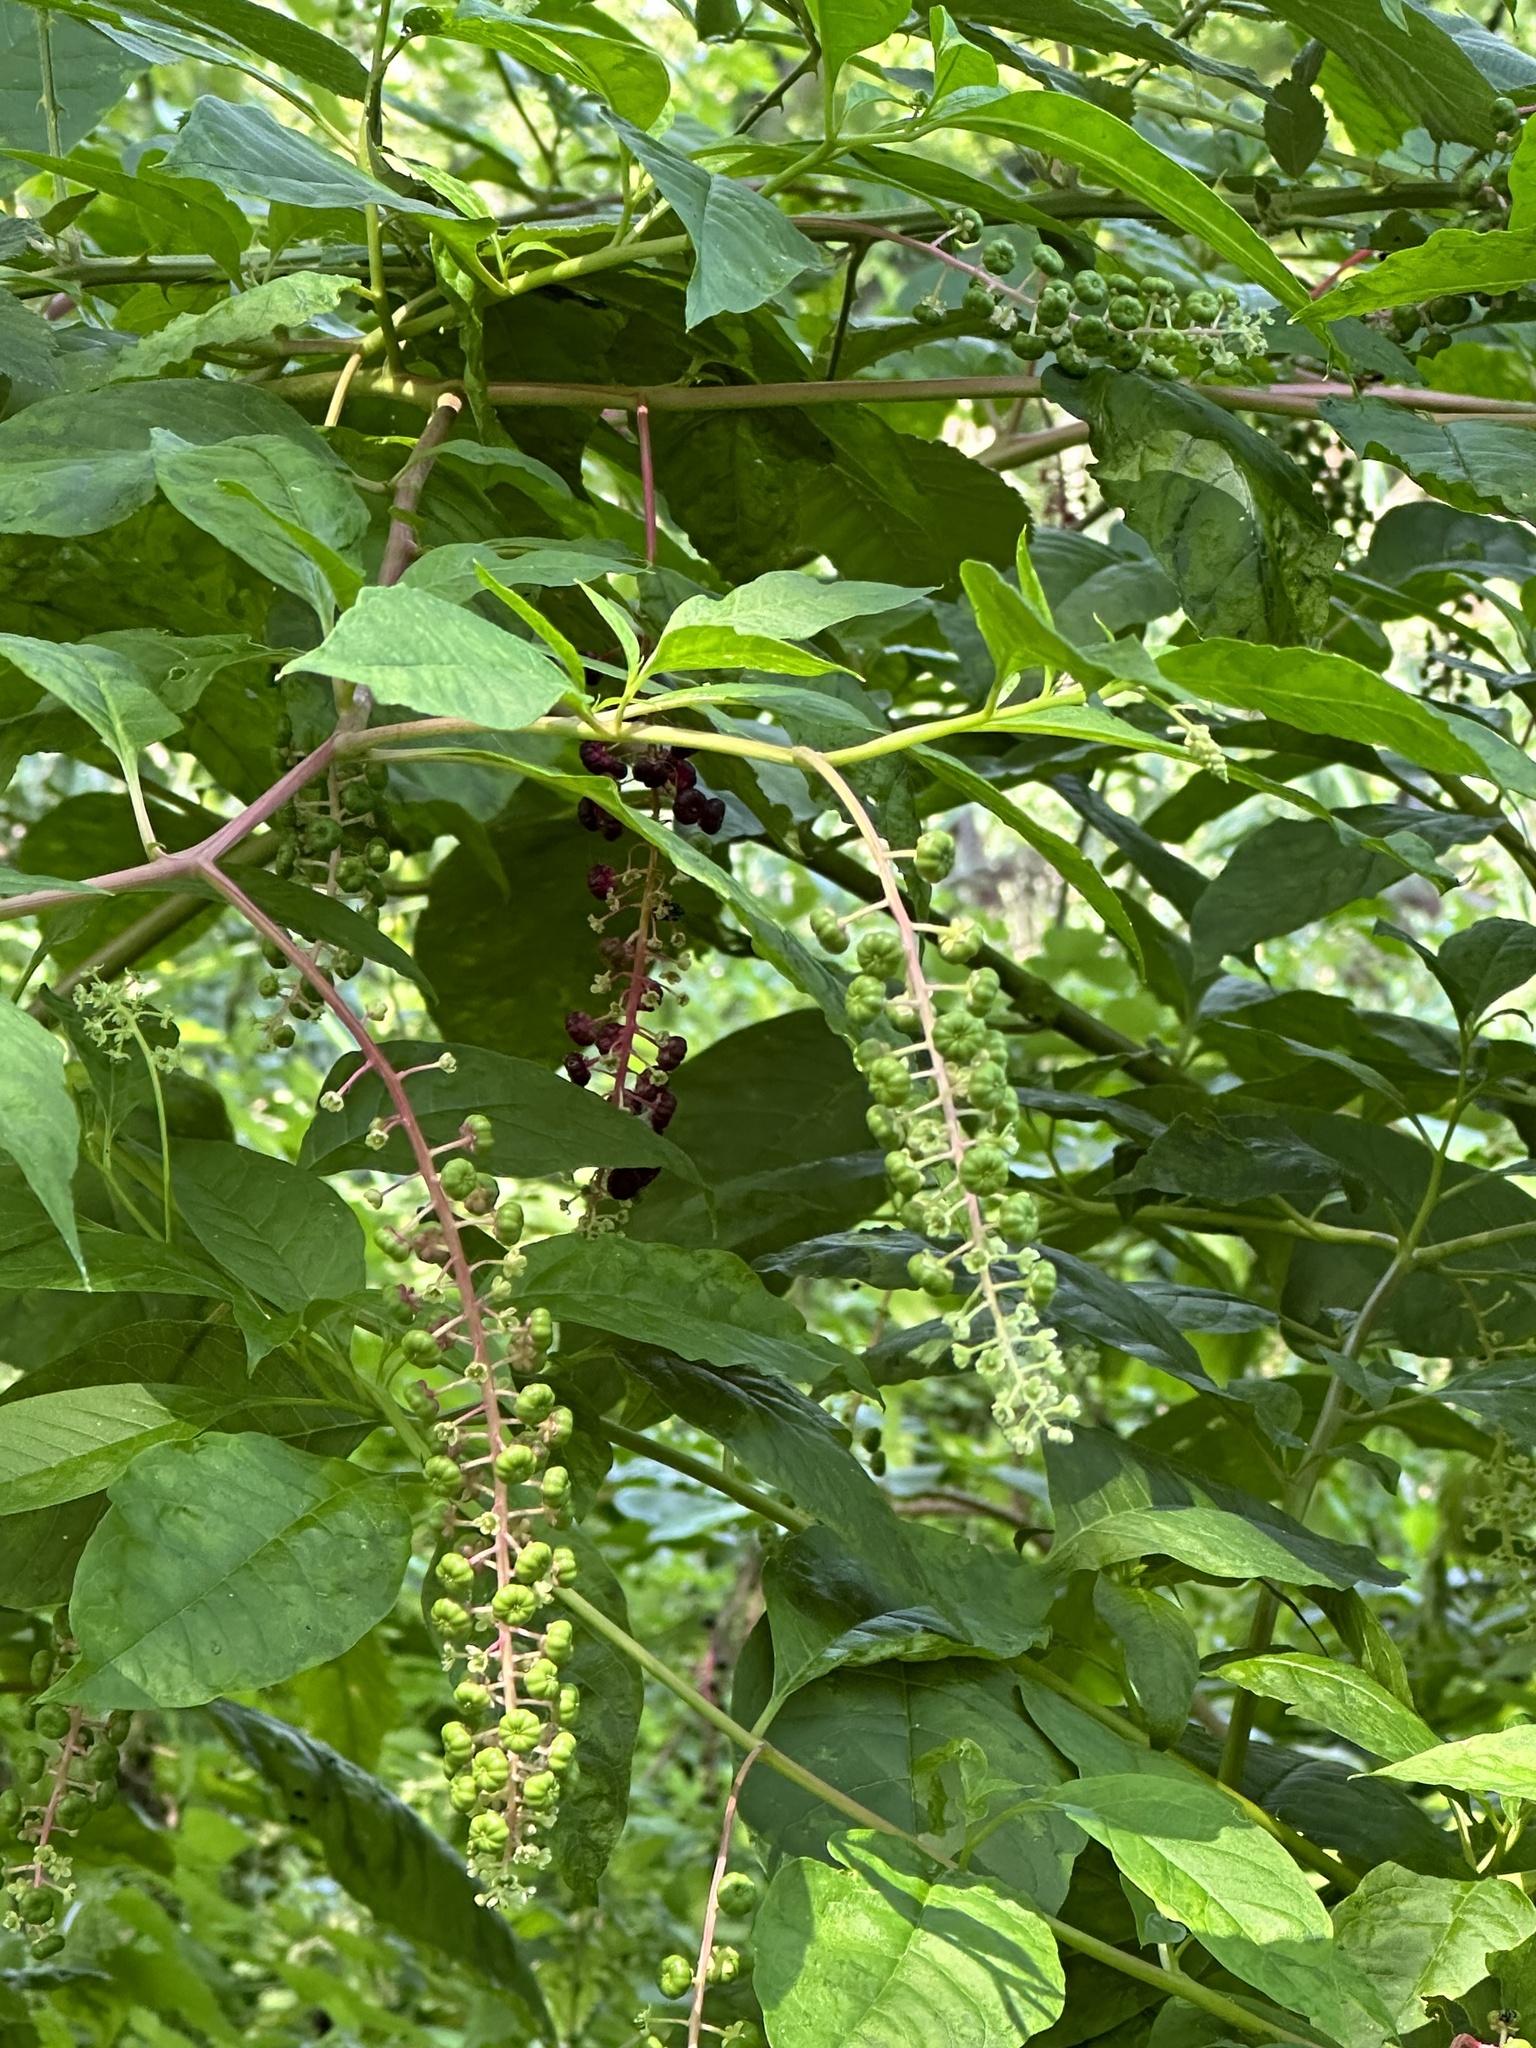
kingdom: Plantae
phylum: Tracheophyta
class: Magnoliopsida
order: Caryophyllales
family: Phytolaccaceae
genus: Phytolacca
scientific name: Phytolacca americana
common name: American pokeweed
